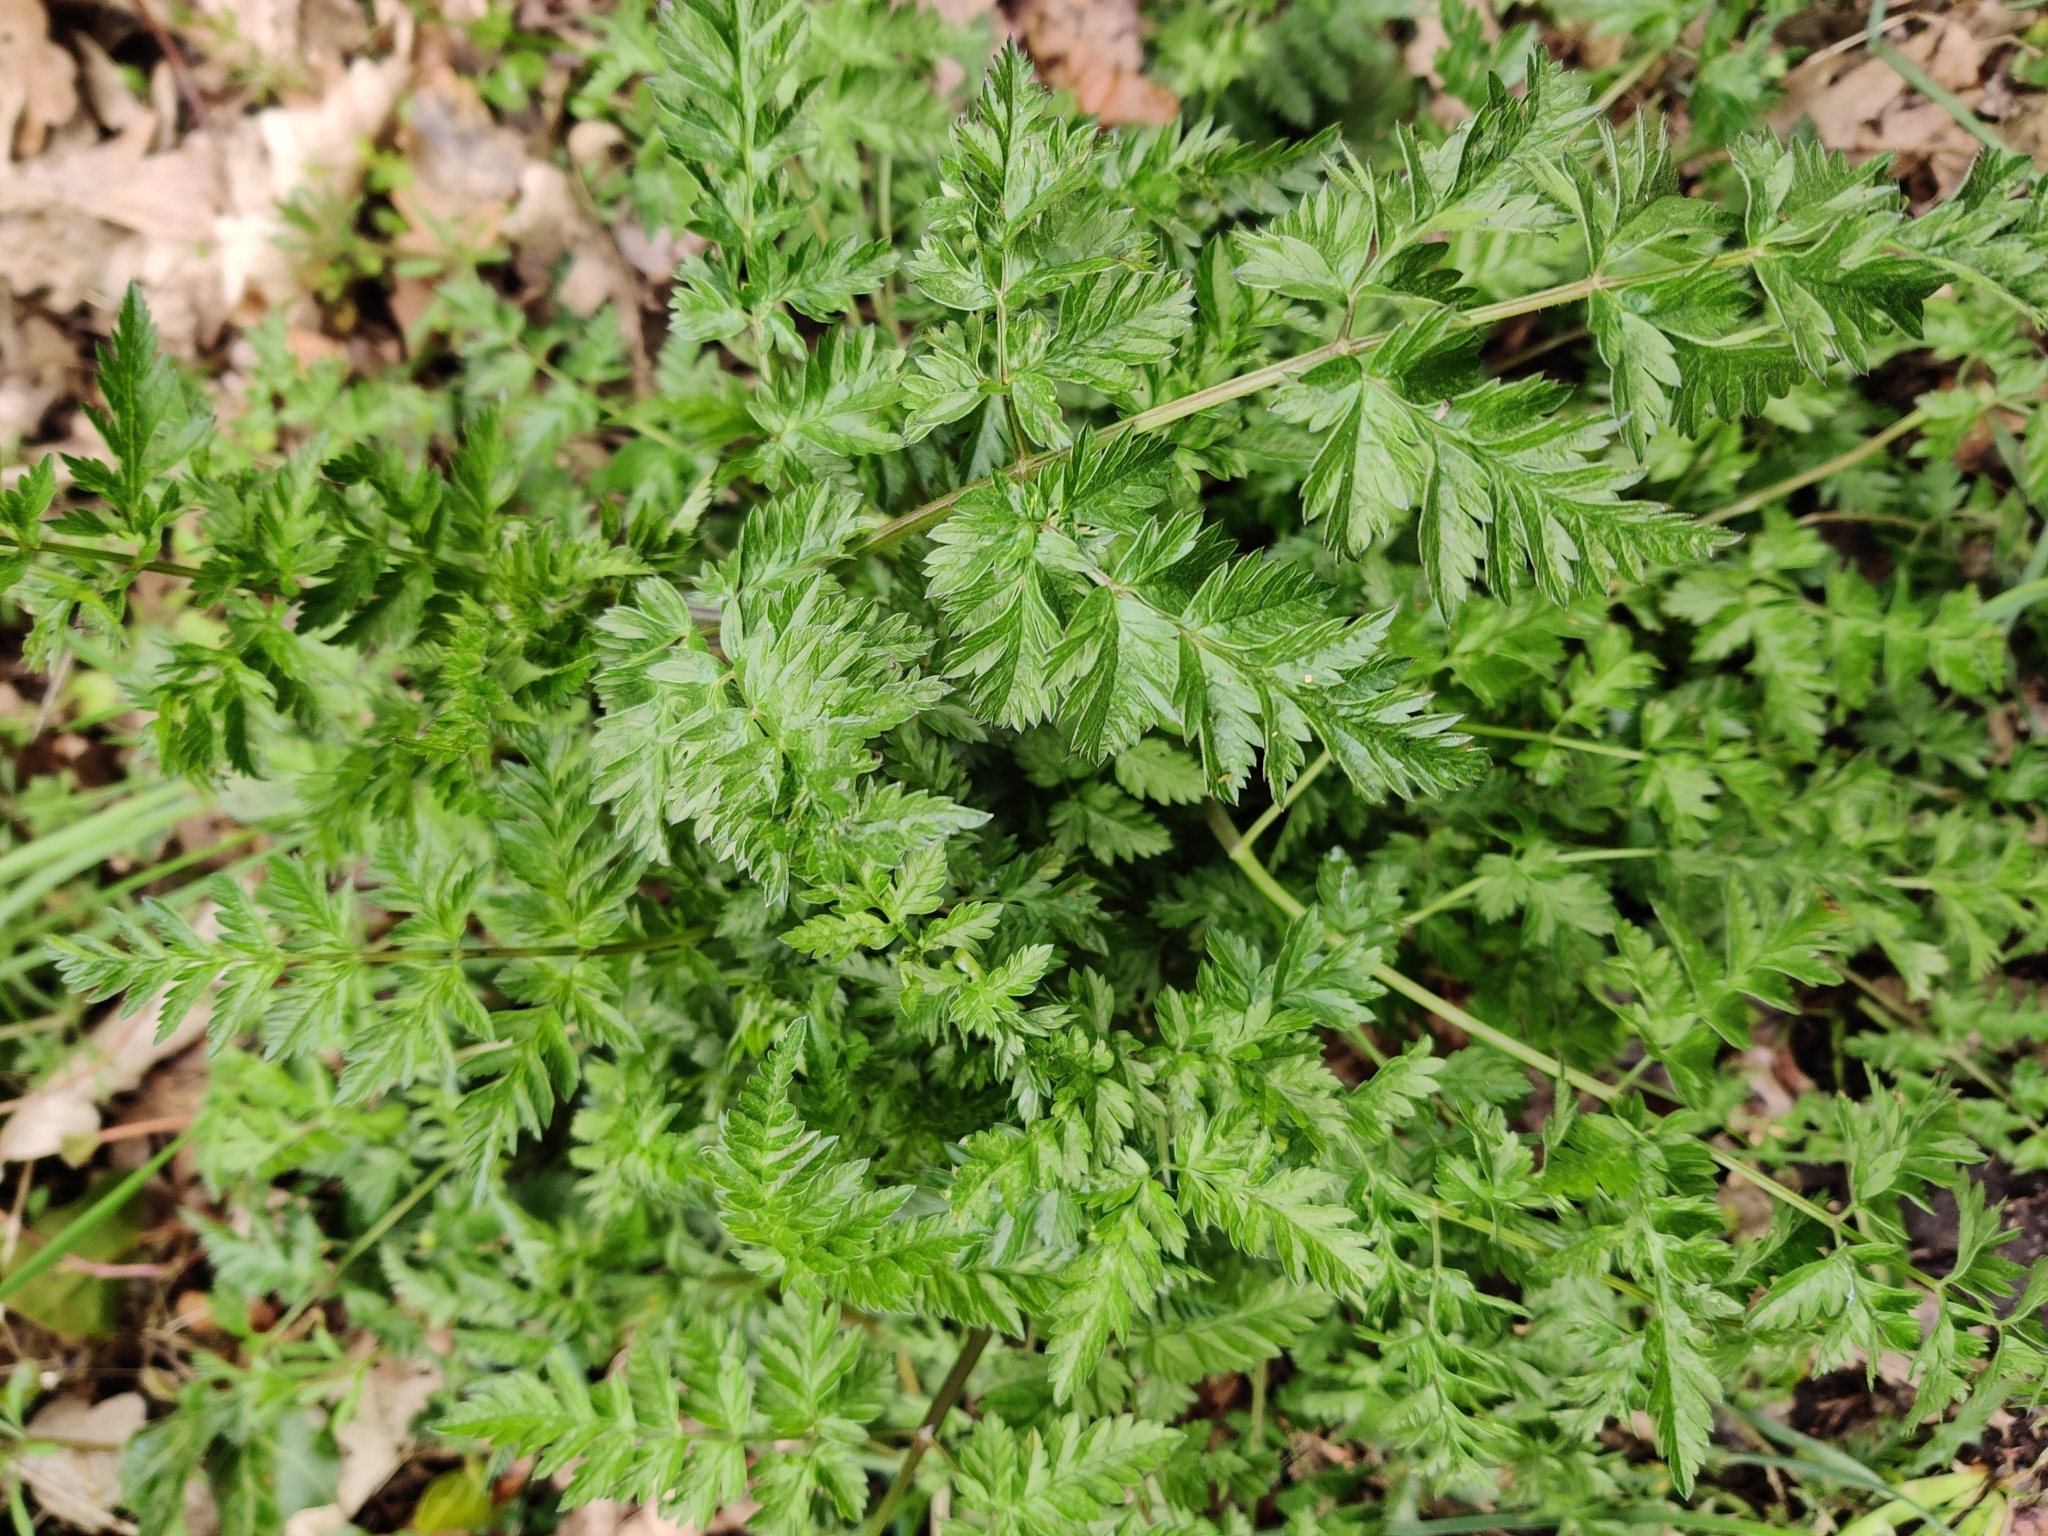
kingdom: Plantae
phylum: Tracheophyta
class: Magnoliopsida
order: Apiales
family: Apiaceae
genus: Anthriscus
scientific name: Anthriscus sylvestris
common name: Cow parsley
